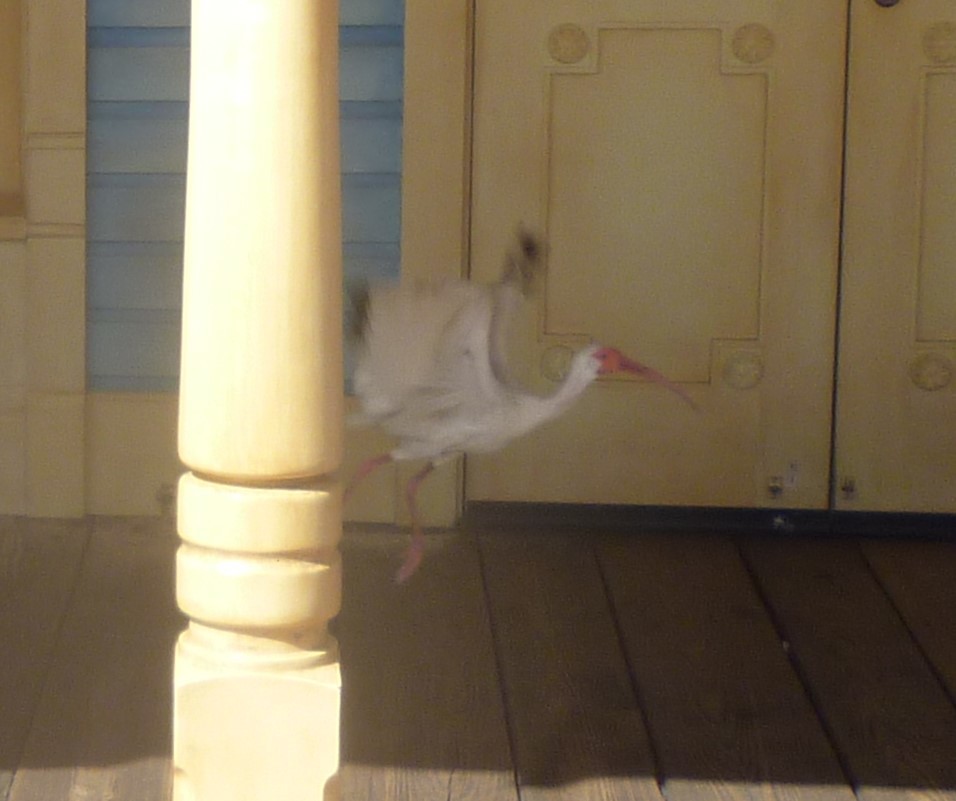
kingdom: Animalia
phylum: Chordata
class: Aves
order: Pelecaniformes
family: Threskiornithidae
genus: Eudocimus
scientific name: Eudocimus albus
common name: White ibis
